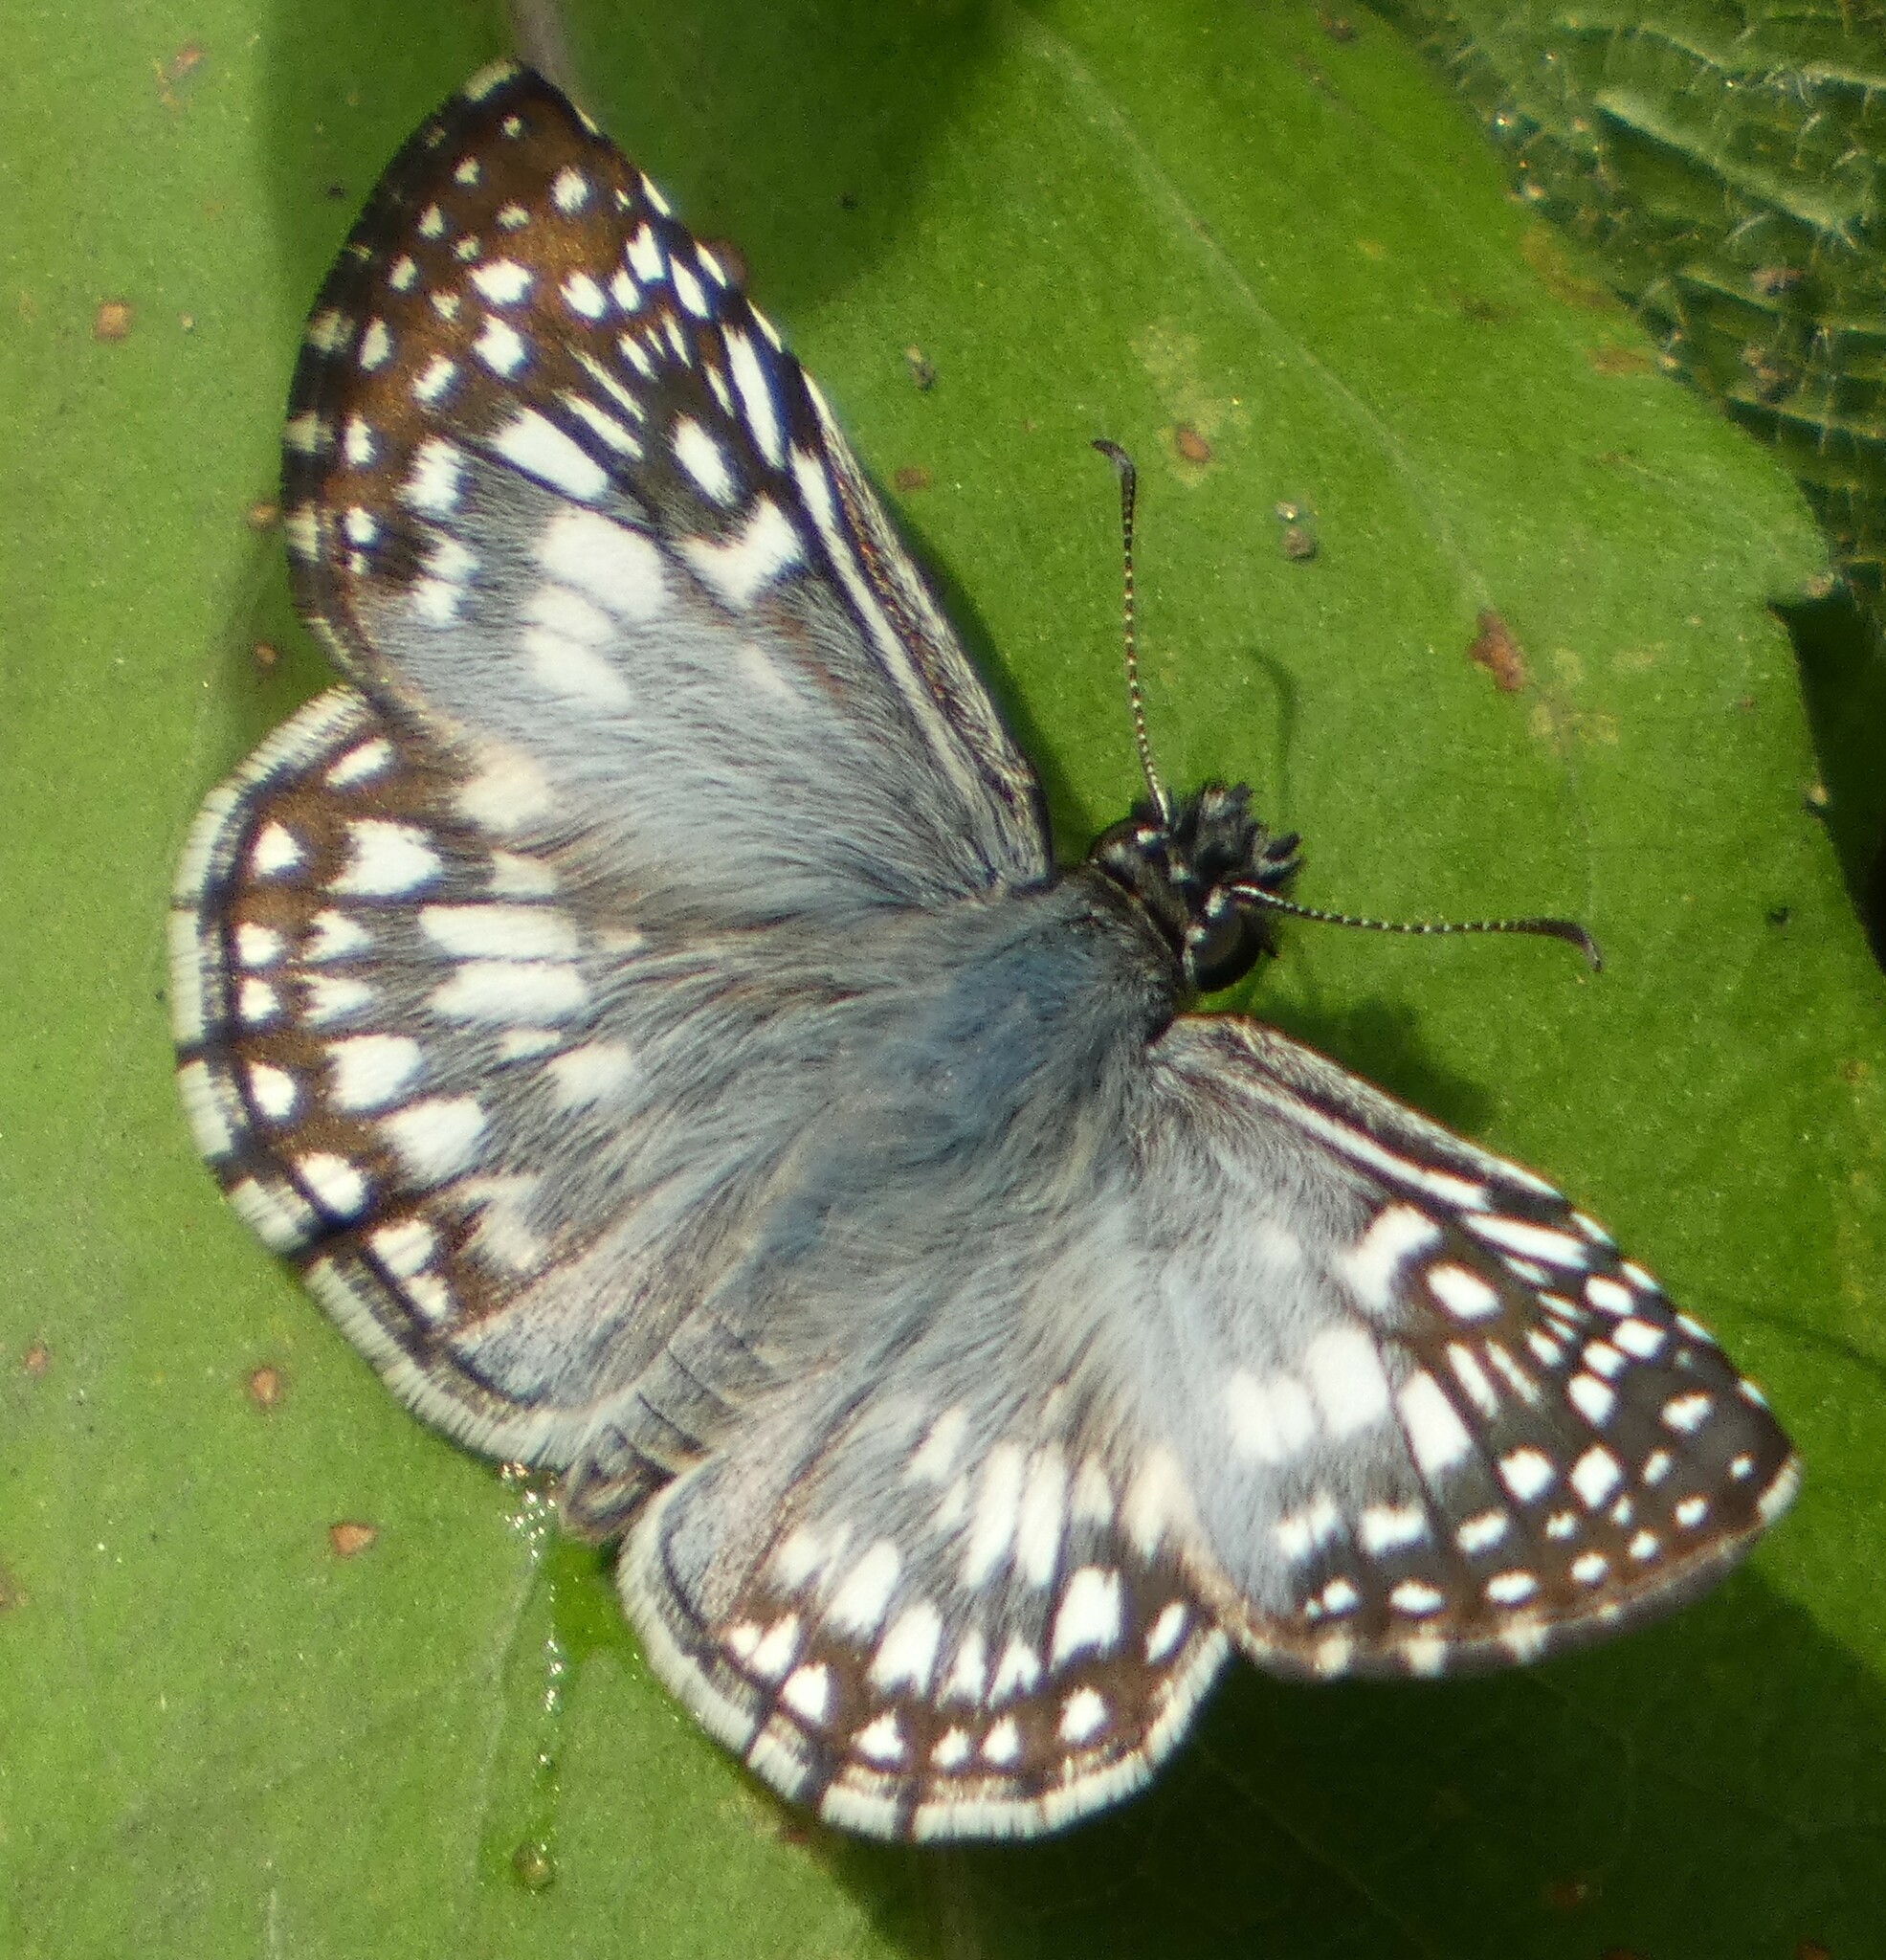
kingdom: Animalia
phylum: Arthropoda
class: Insecta
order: Lepidoptera
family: Hesperiidae
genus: Pyrgus
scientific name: Pyrgus oileus
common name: Tropical checkered-skipper
